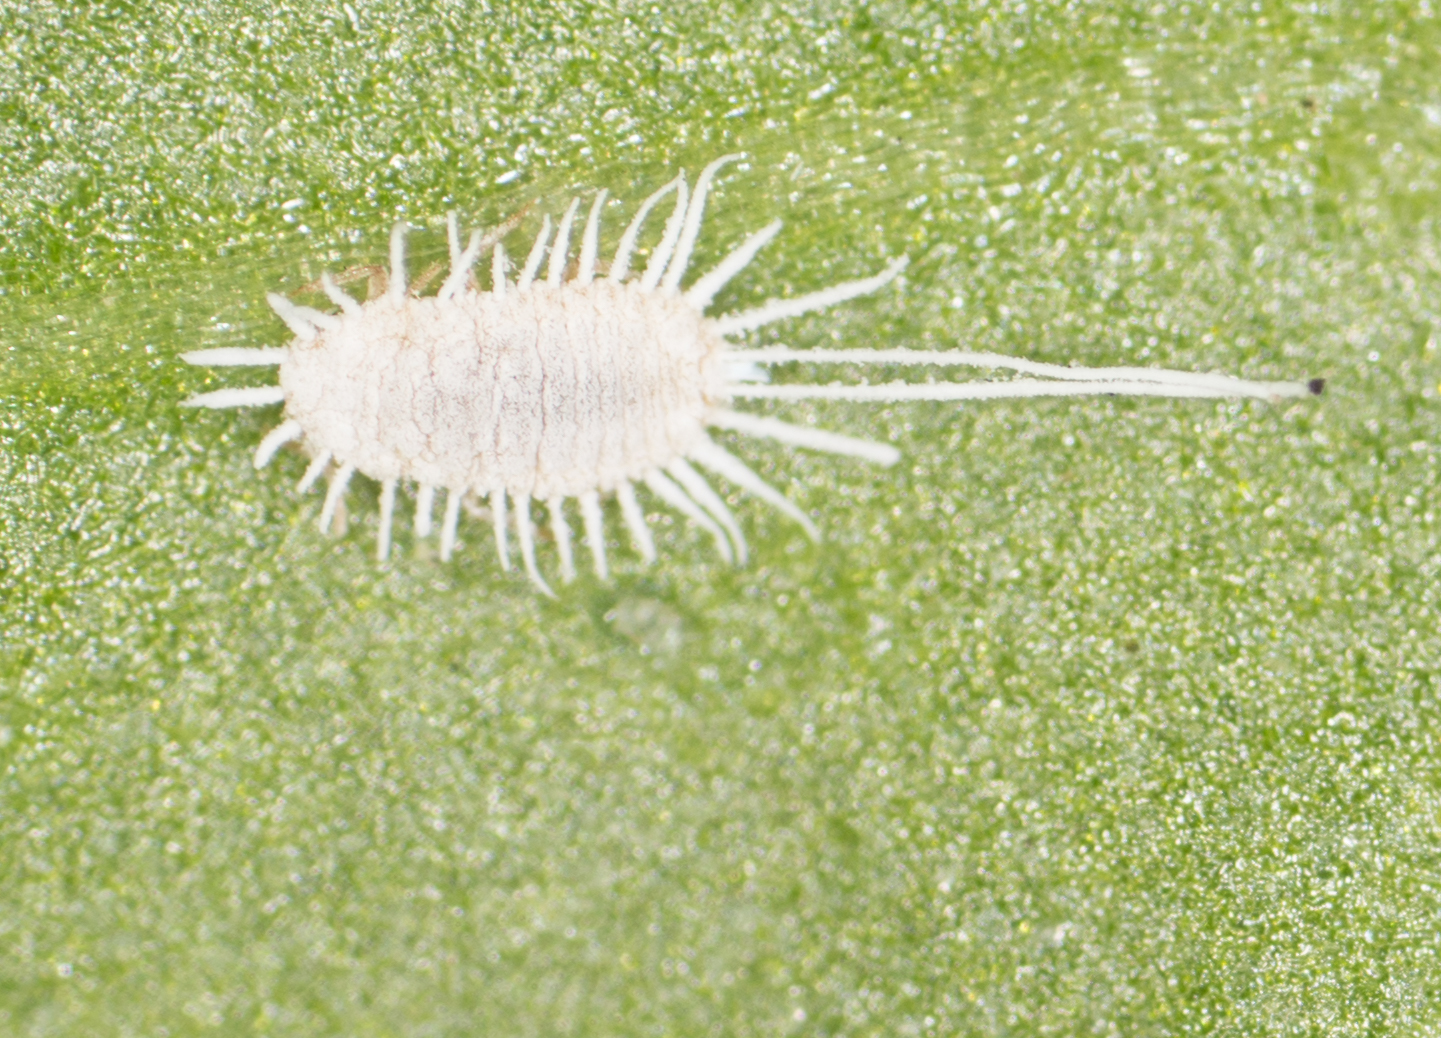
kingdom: Animalia
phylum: Arthropoda
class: Insecta
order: Hemiptera
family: Pseudococcidae
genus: Pseudococcus
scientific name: Pseudococcus longispinus
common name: Long-tailed mealybug
